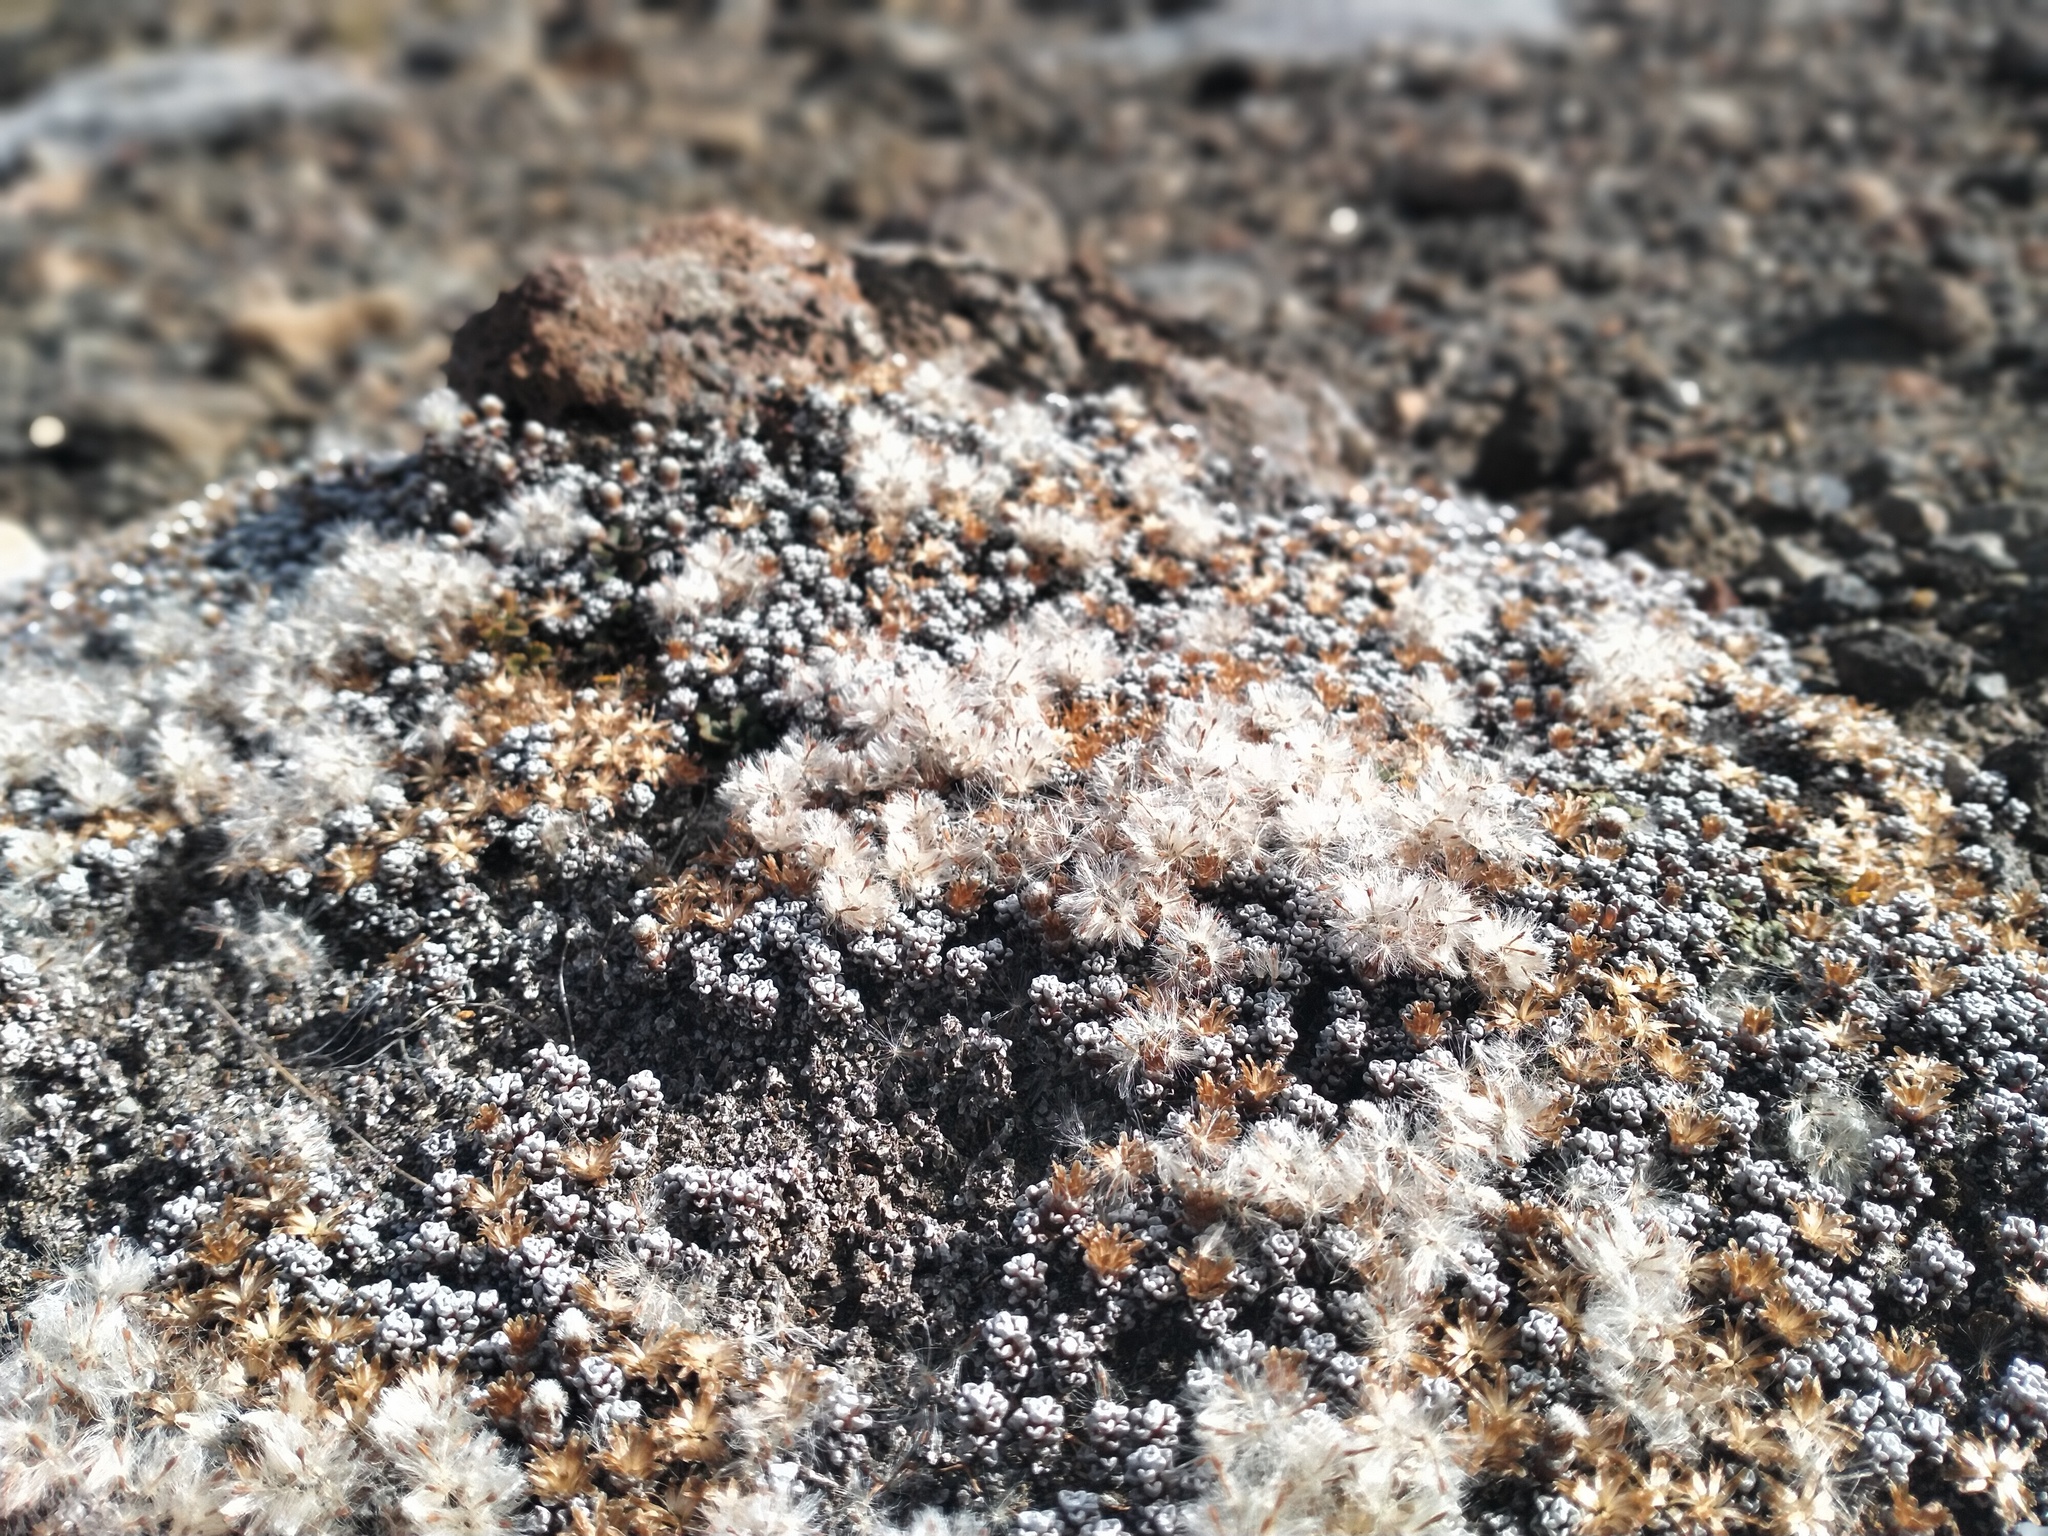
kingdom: Plantae
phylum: Tracheophyta
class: Magnoliopsida
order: Asterales
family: Asteraceae
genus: Raoulia
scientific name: Raoulia albosericea
